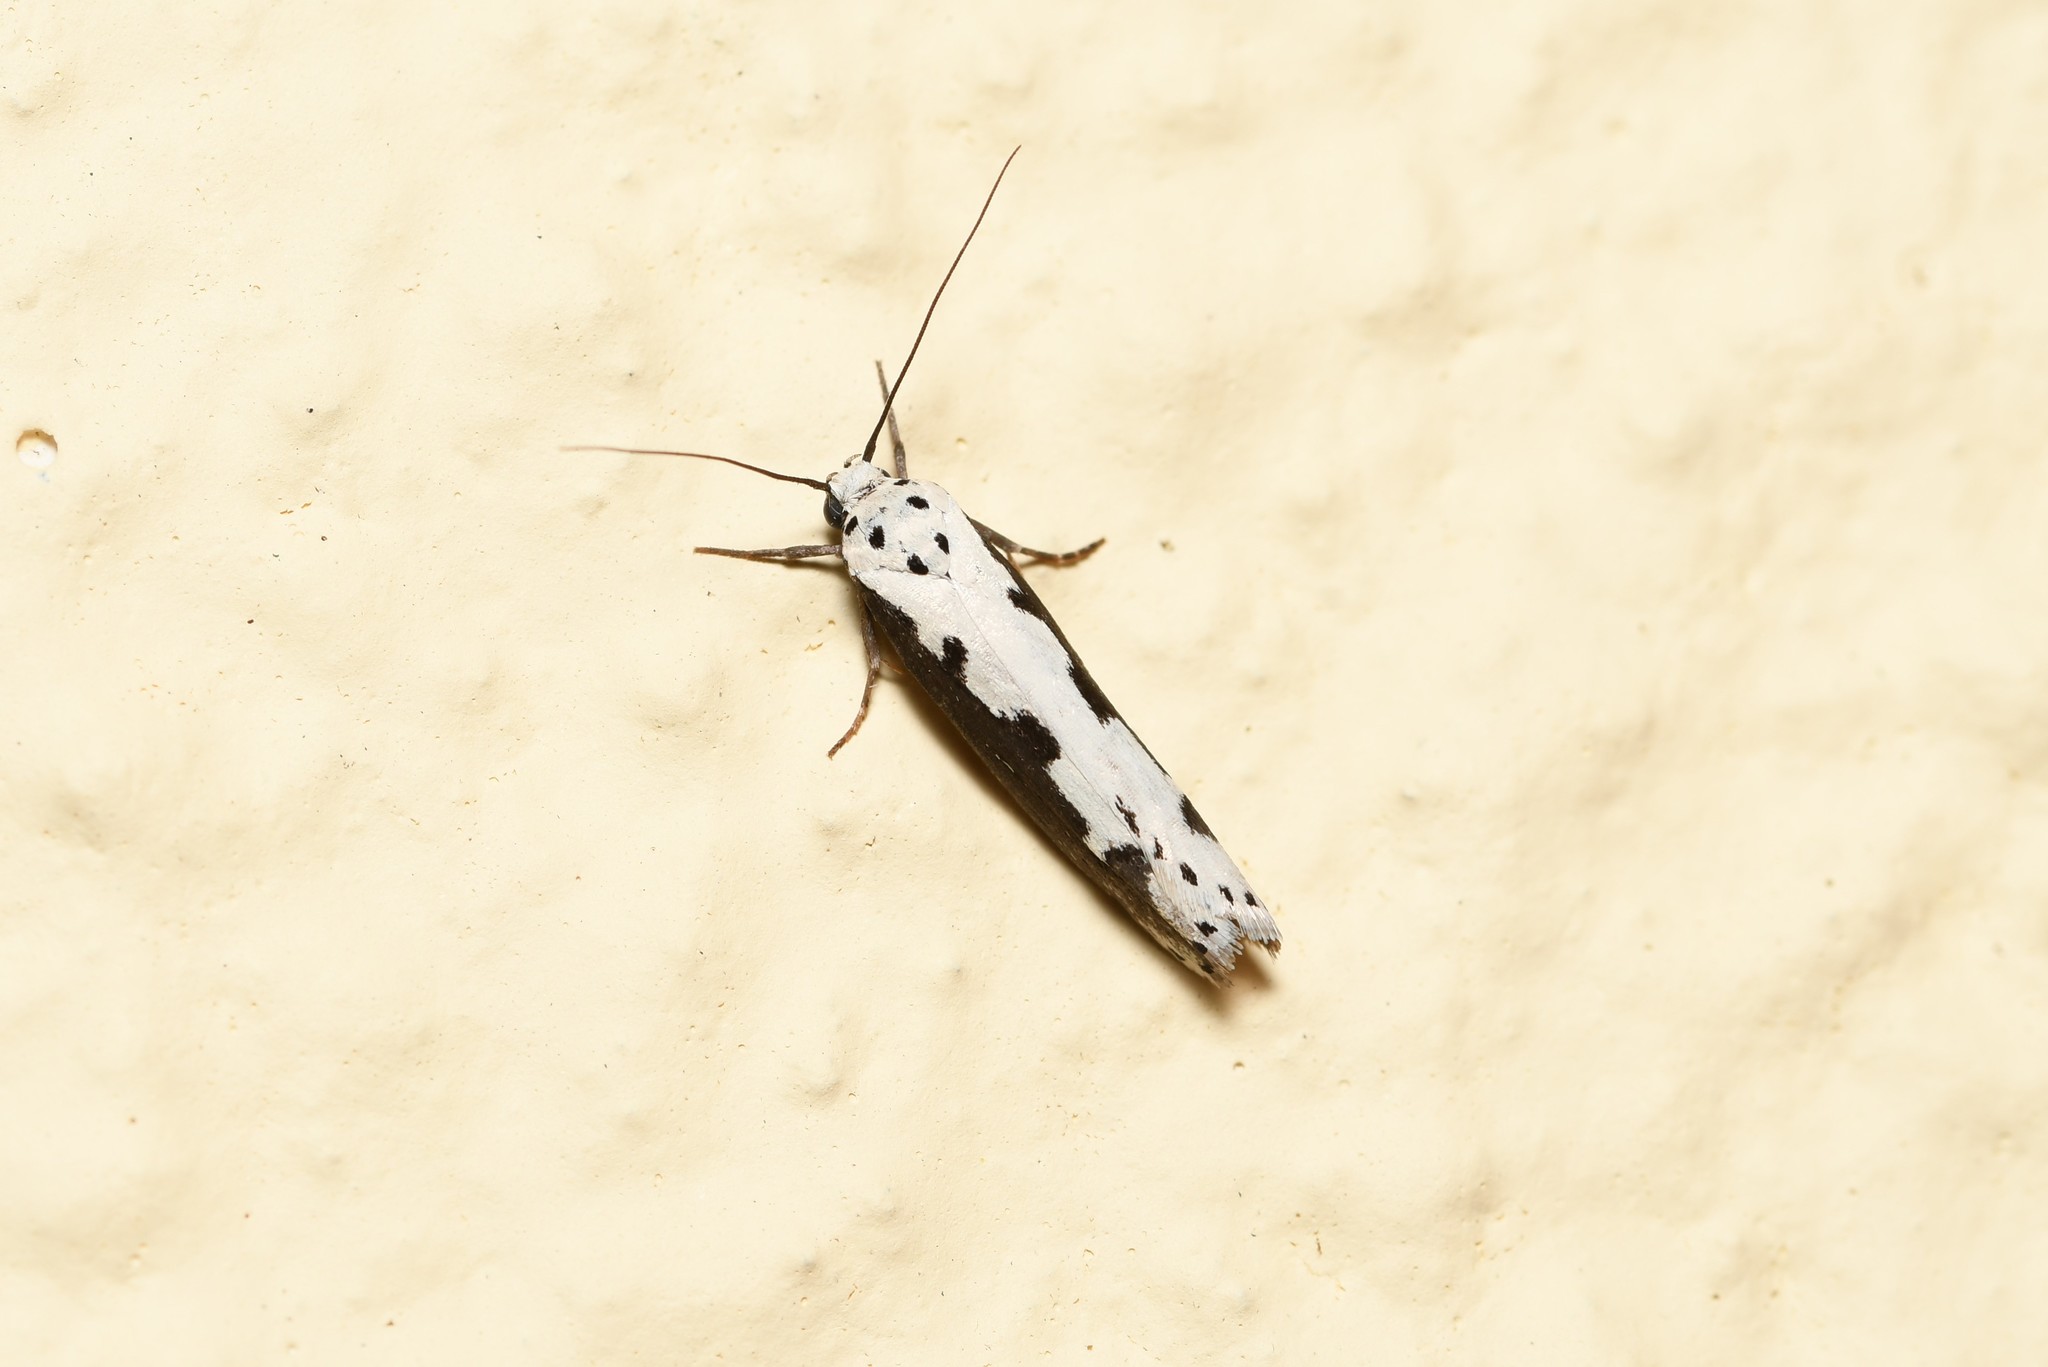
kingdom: Animalia
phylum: Arthropoda
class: Insecta
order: Lepidoptera
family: Ethmiidae
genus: Ethmia
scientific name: Ethmia bipunctella
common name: Bordered ermel
